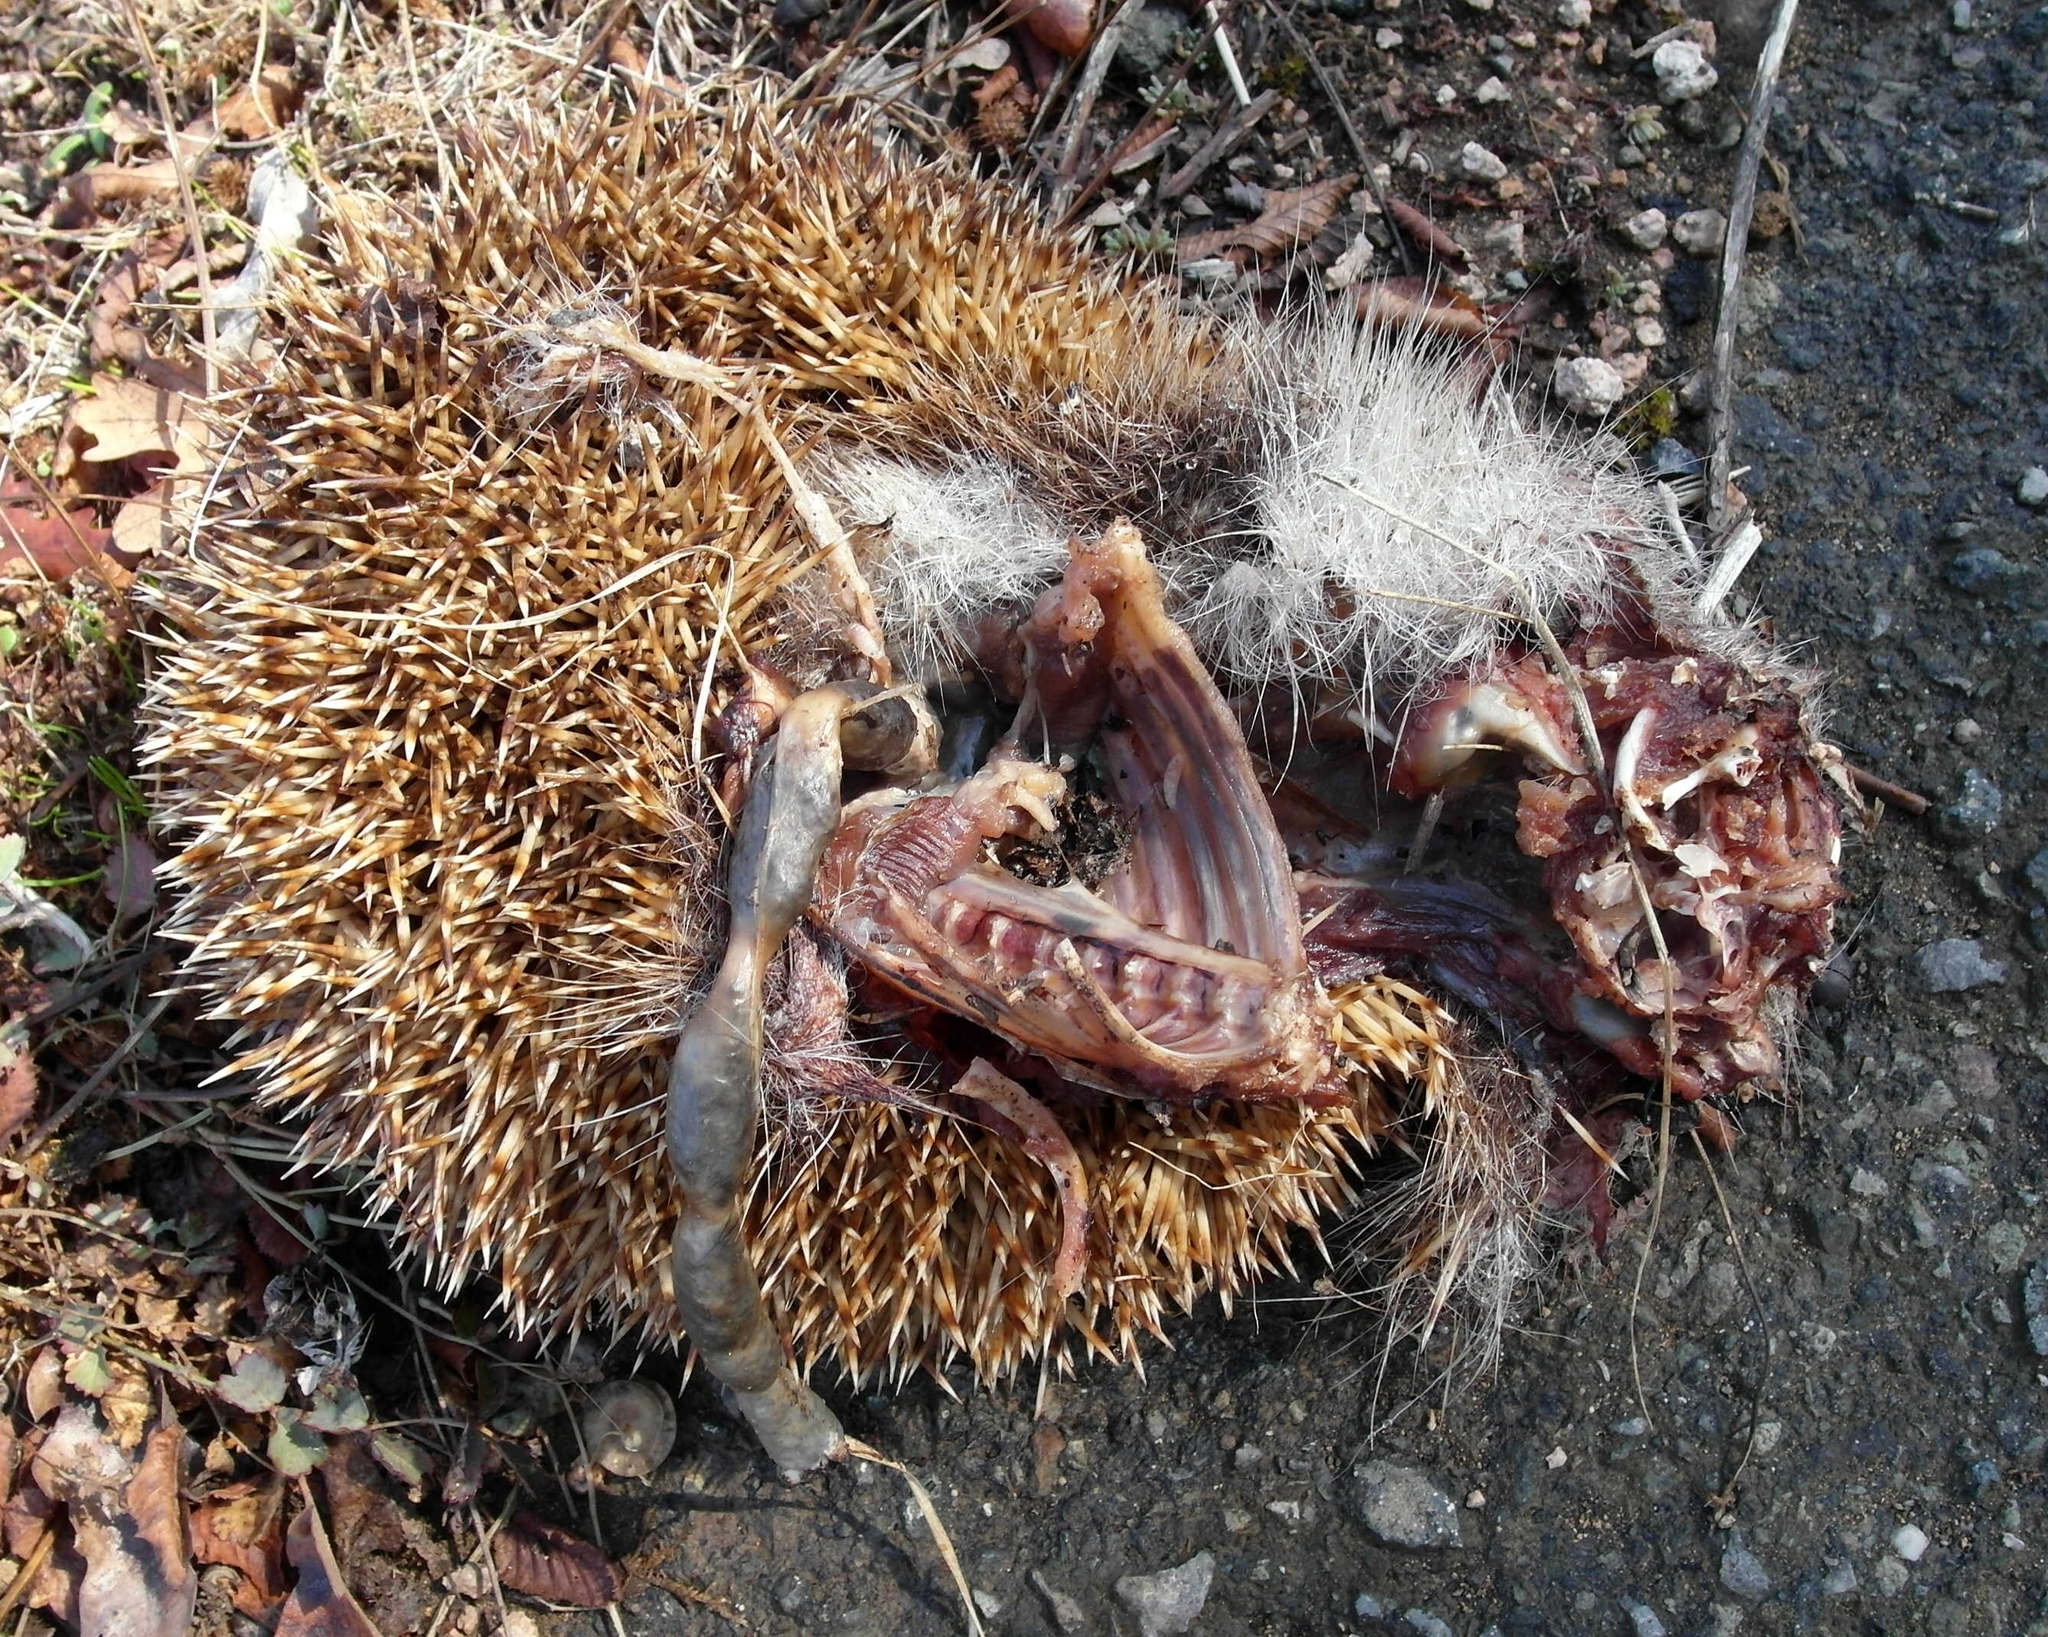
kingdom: Animalia
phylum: Chordata
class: Mammalia
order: Erinaceomorpha
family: Erinaceidae
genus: Erinaceus
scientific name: Erinaceus roumanicus
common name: Northern white-breasted hedgehog
